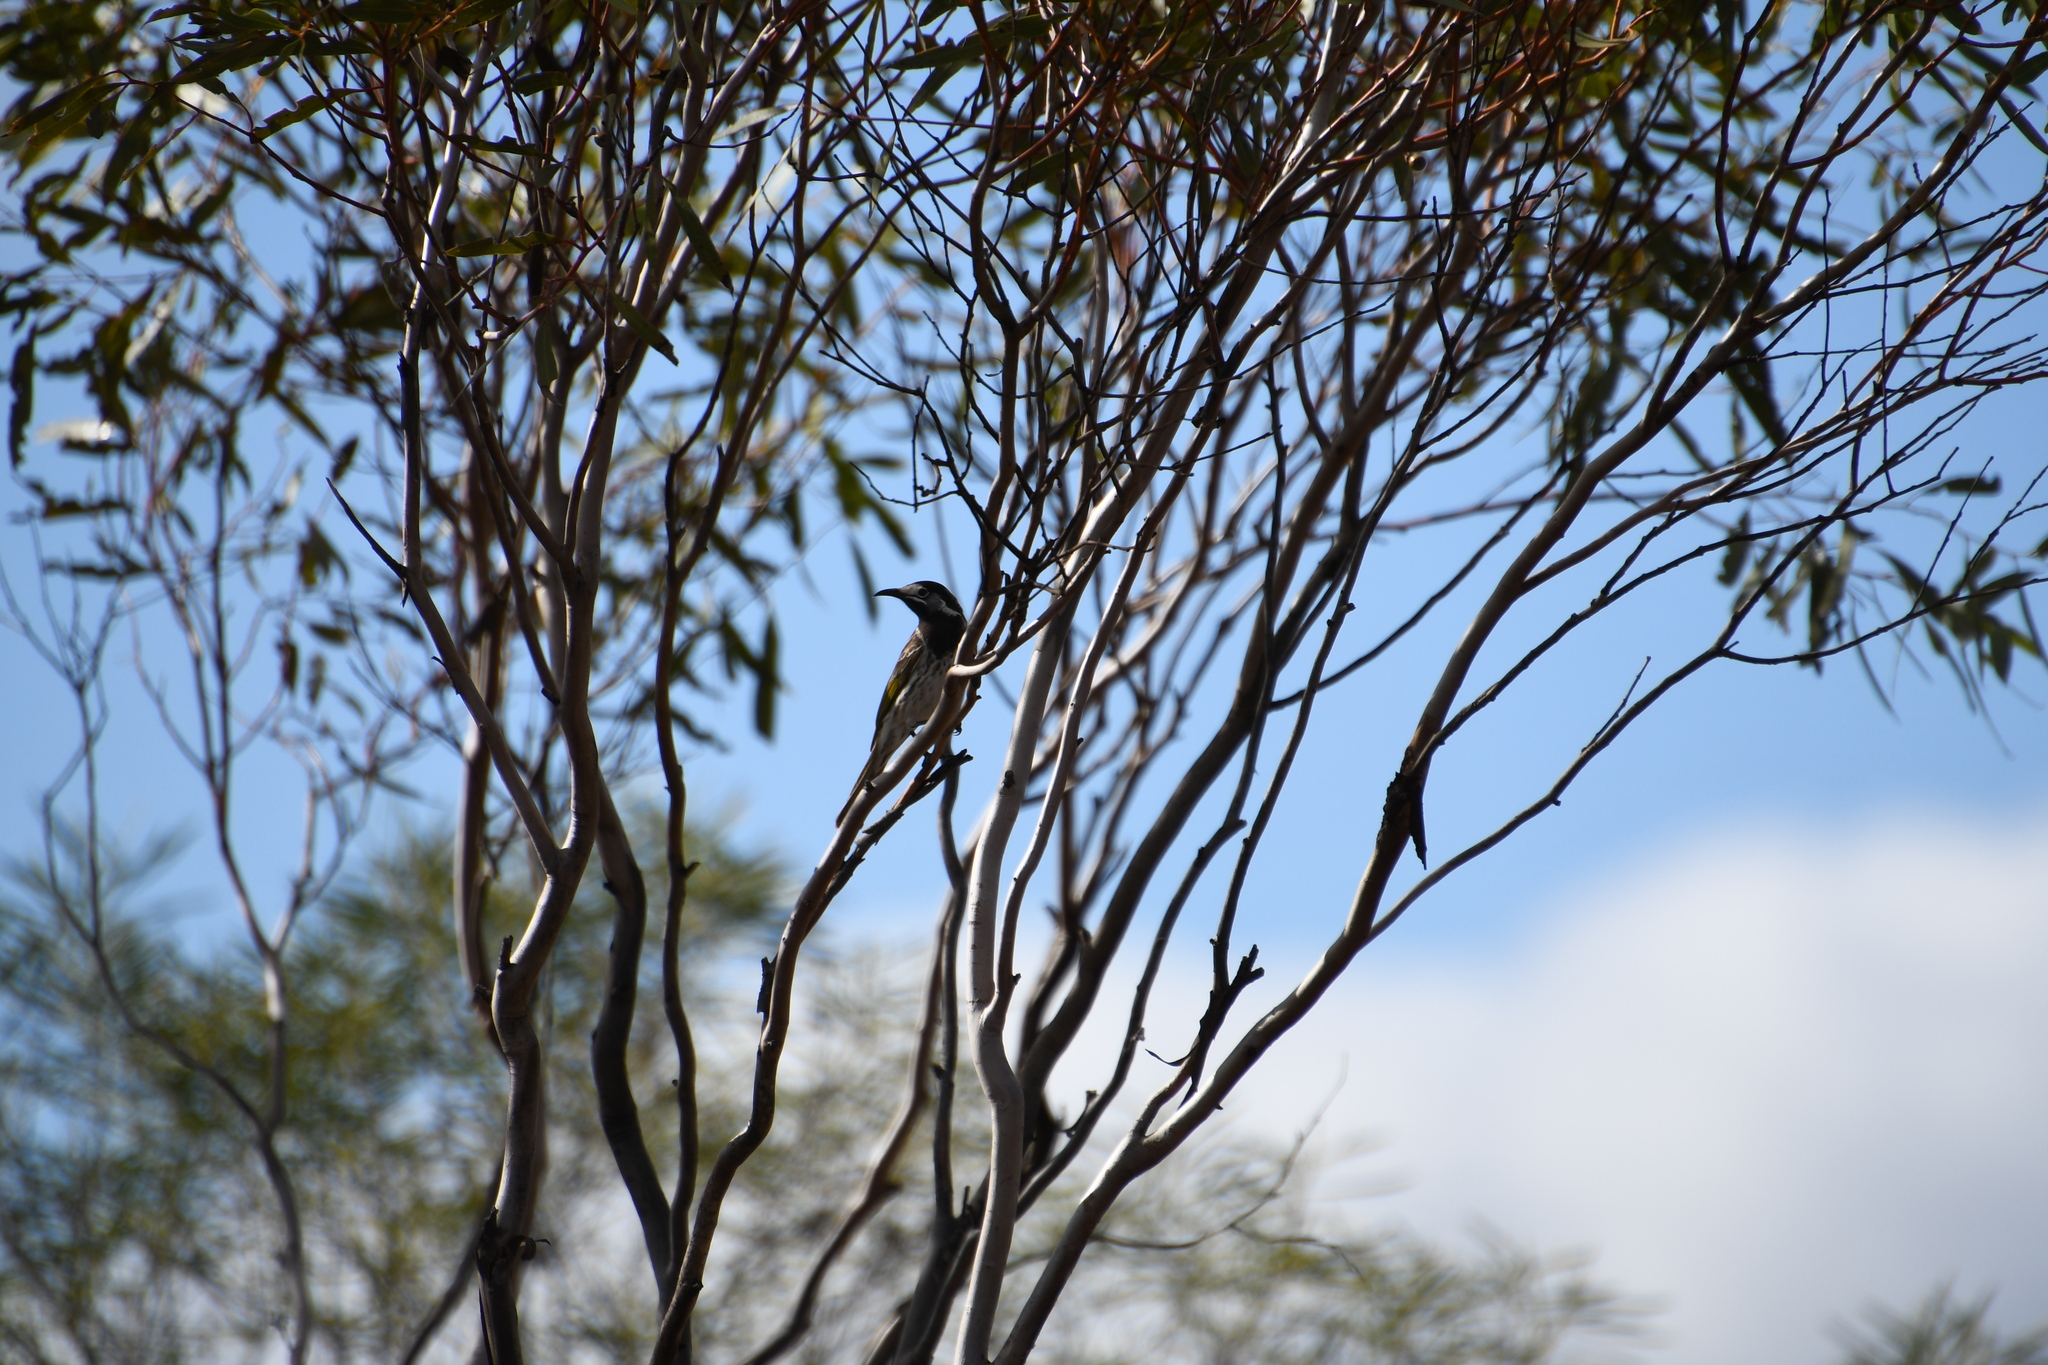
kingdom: Animalia
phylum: Chordata
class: Aves
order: Passeriformes
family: Meliphagidae
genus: Purnella
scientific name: Purnella albifrons
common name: White-fronted honeyeater
